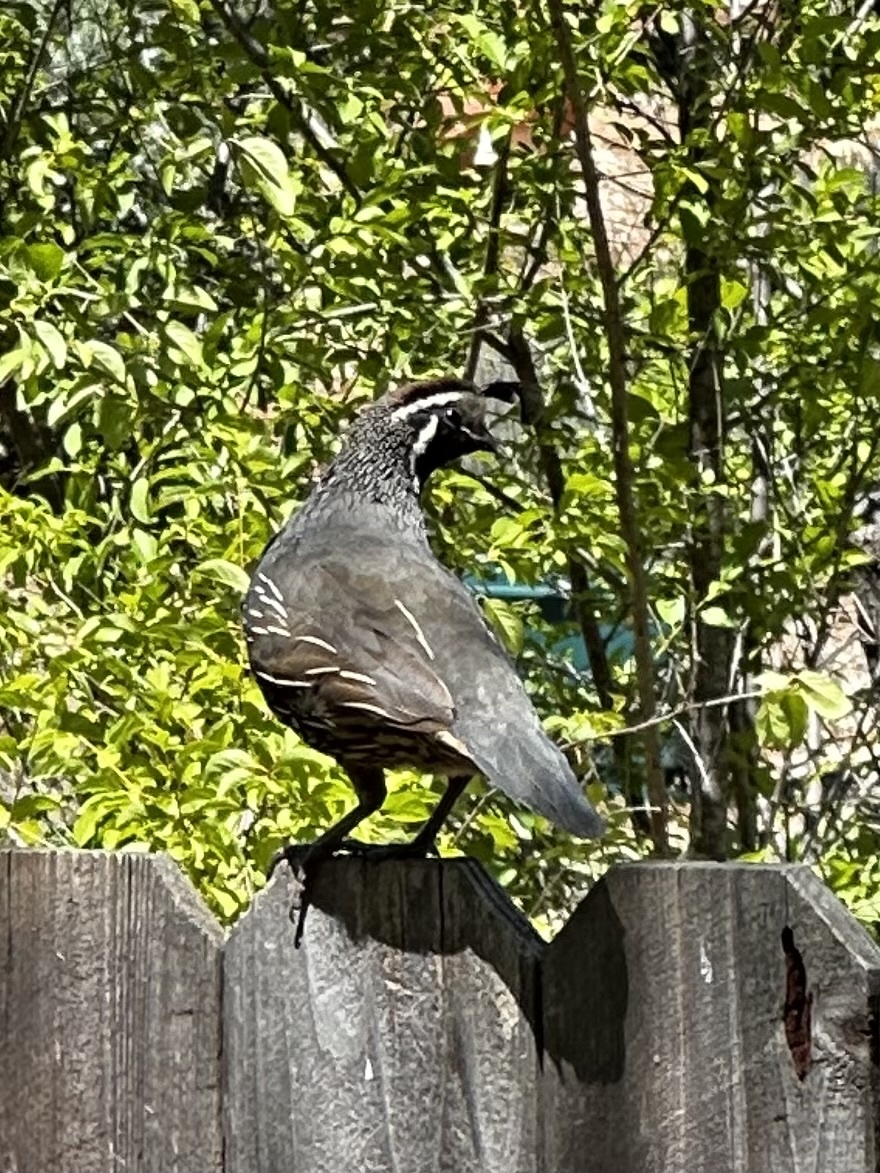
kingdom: Animalia
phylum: Chordata
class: Aves
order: Galliformes
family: Odontophoridae
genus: Callipepla
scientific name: Callipepla californica
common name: California quail
